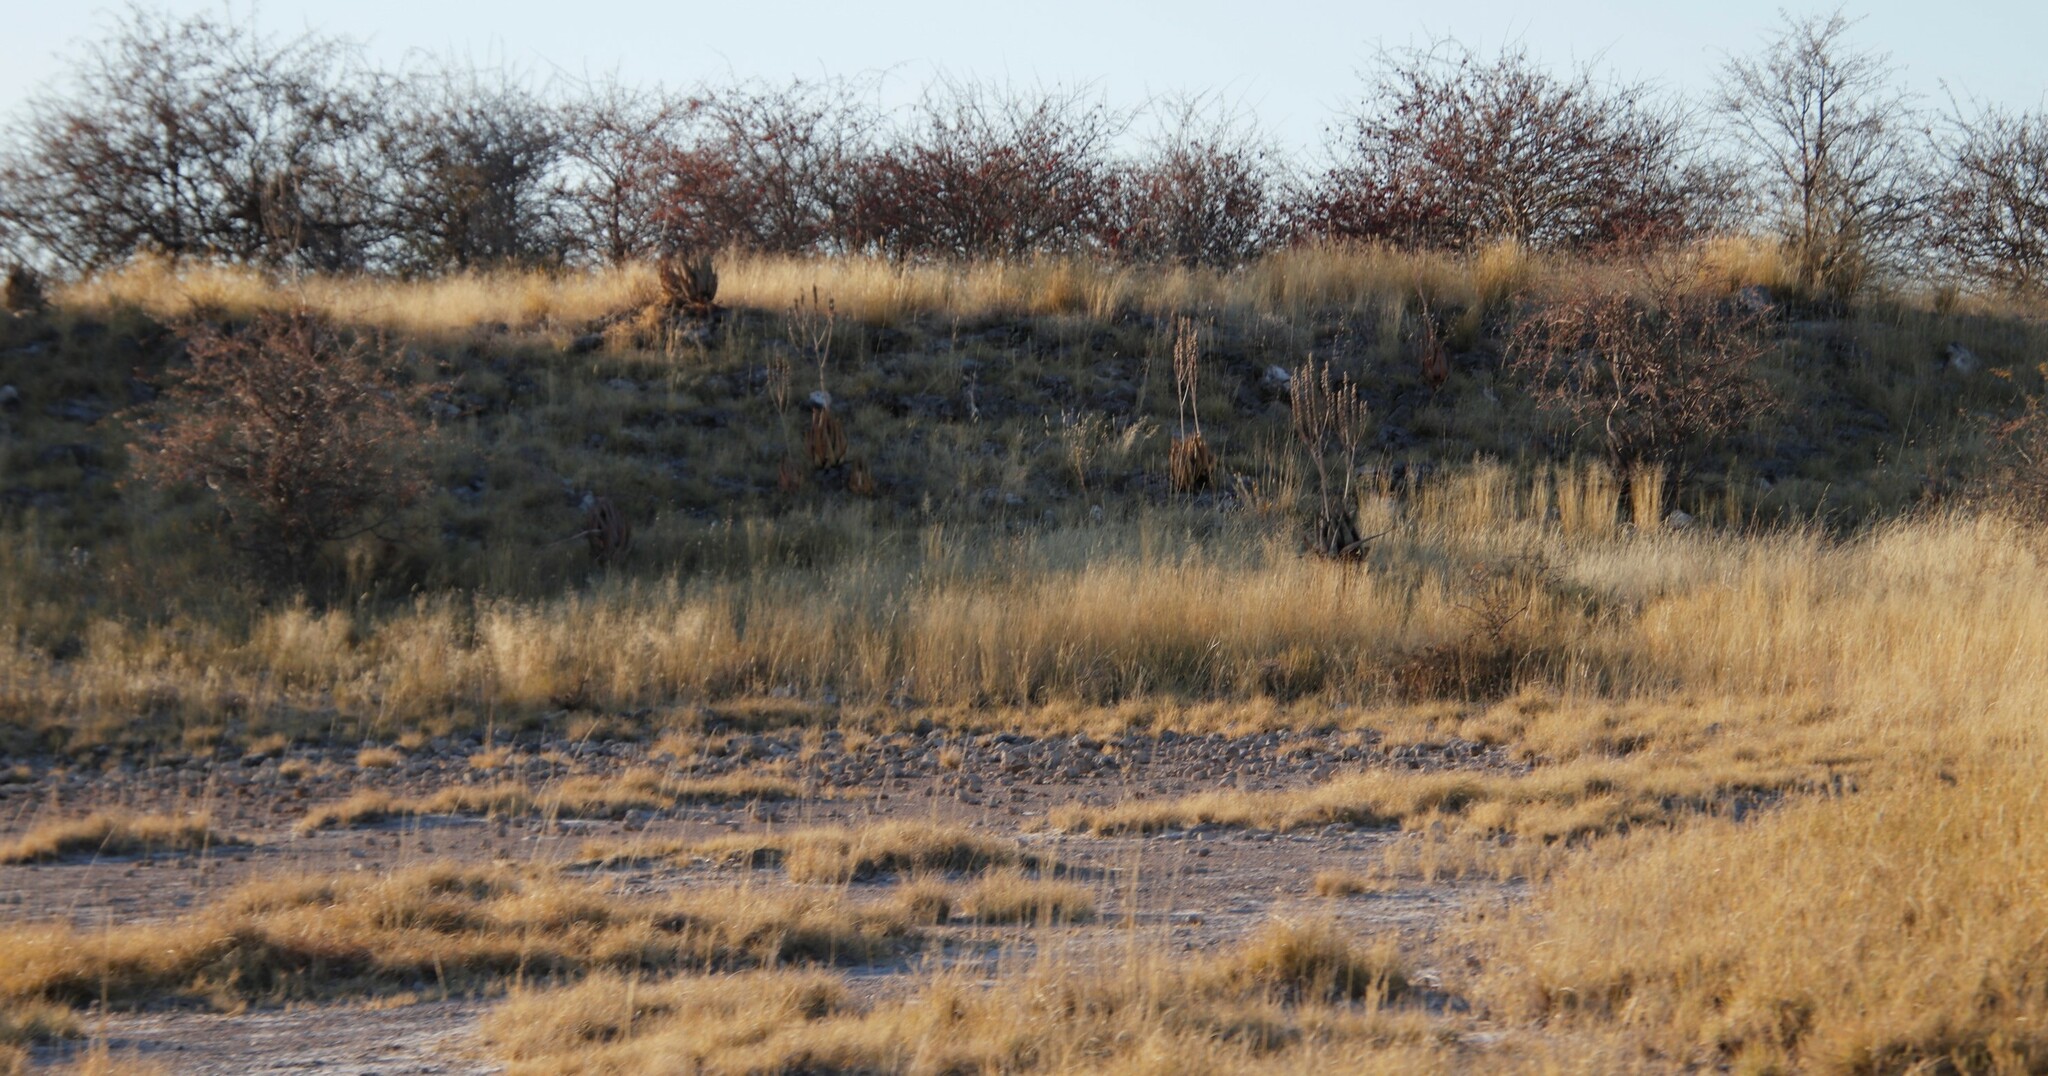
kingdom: Plantae
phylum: Tracheophyta
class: Liliopsida
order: Asparagales
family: Asphodelaceae
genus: Aloe
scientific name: Aloe esculenta
